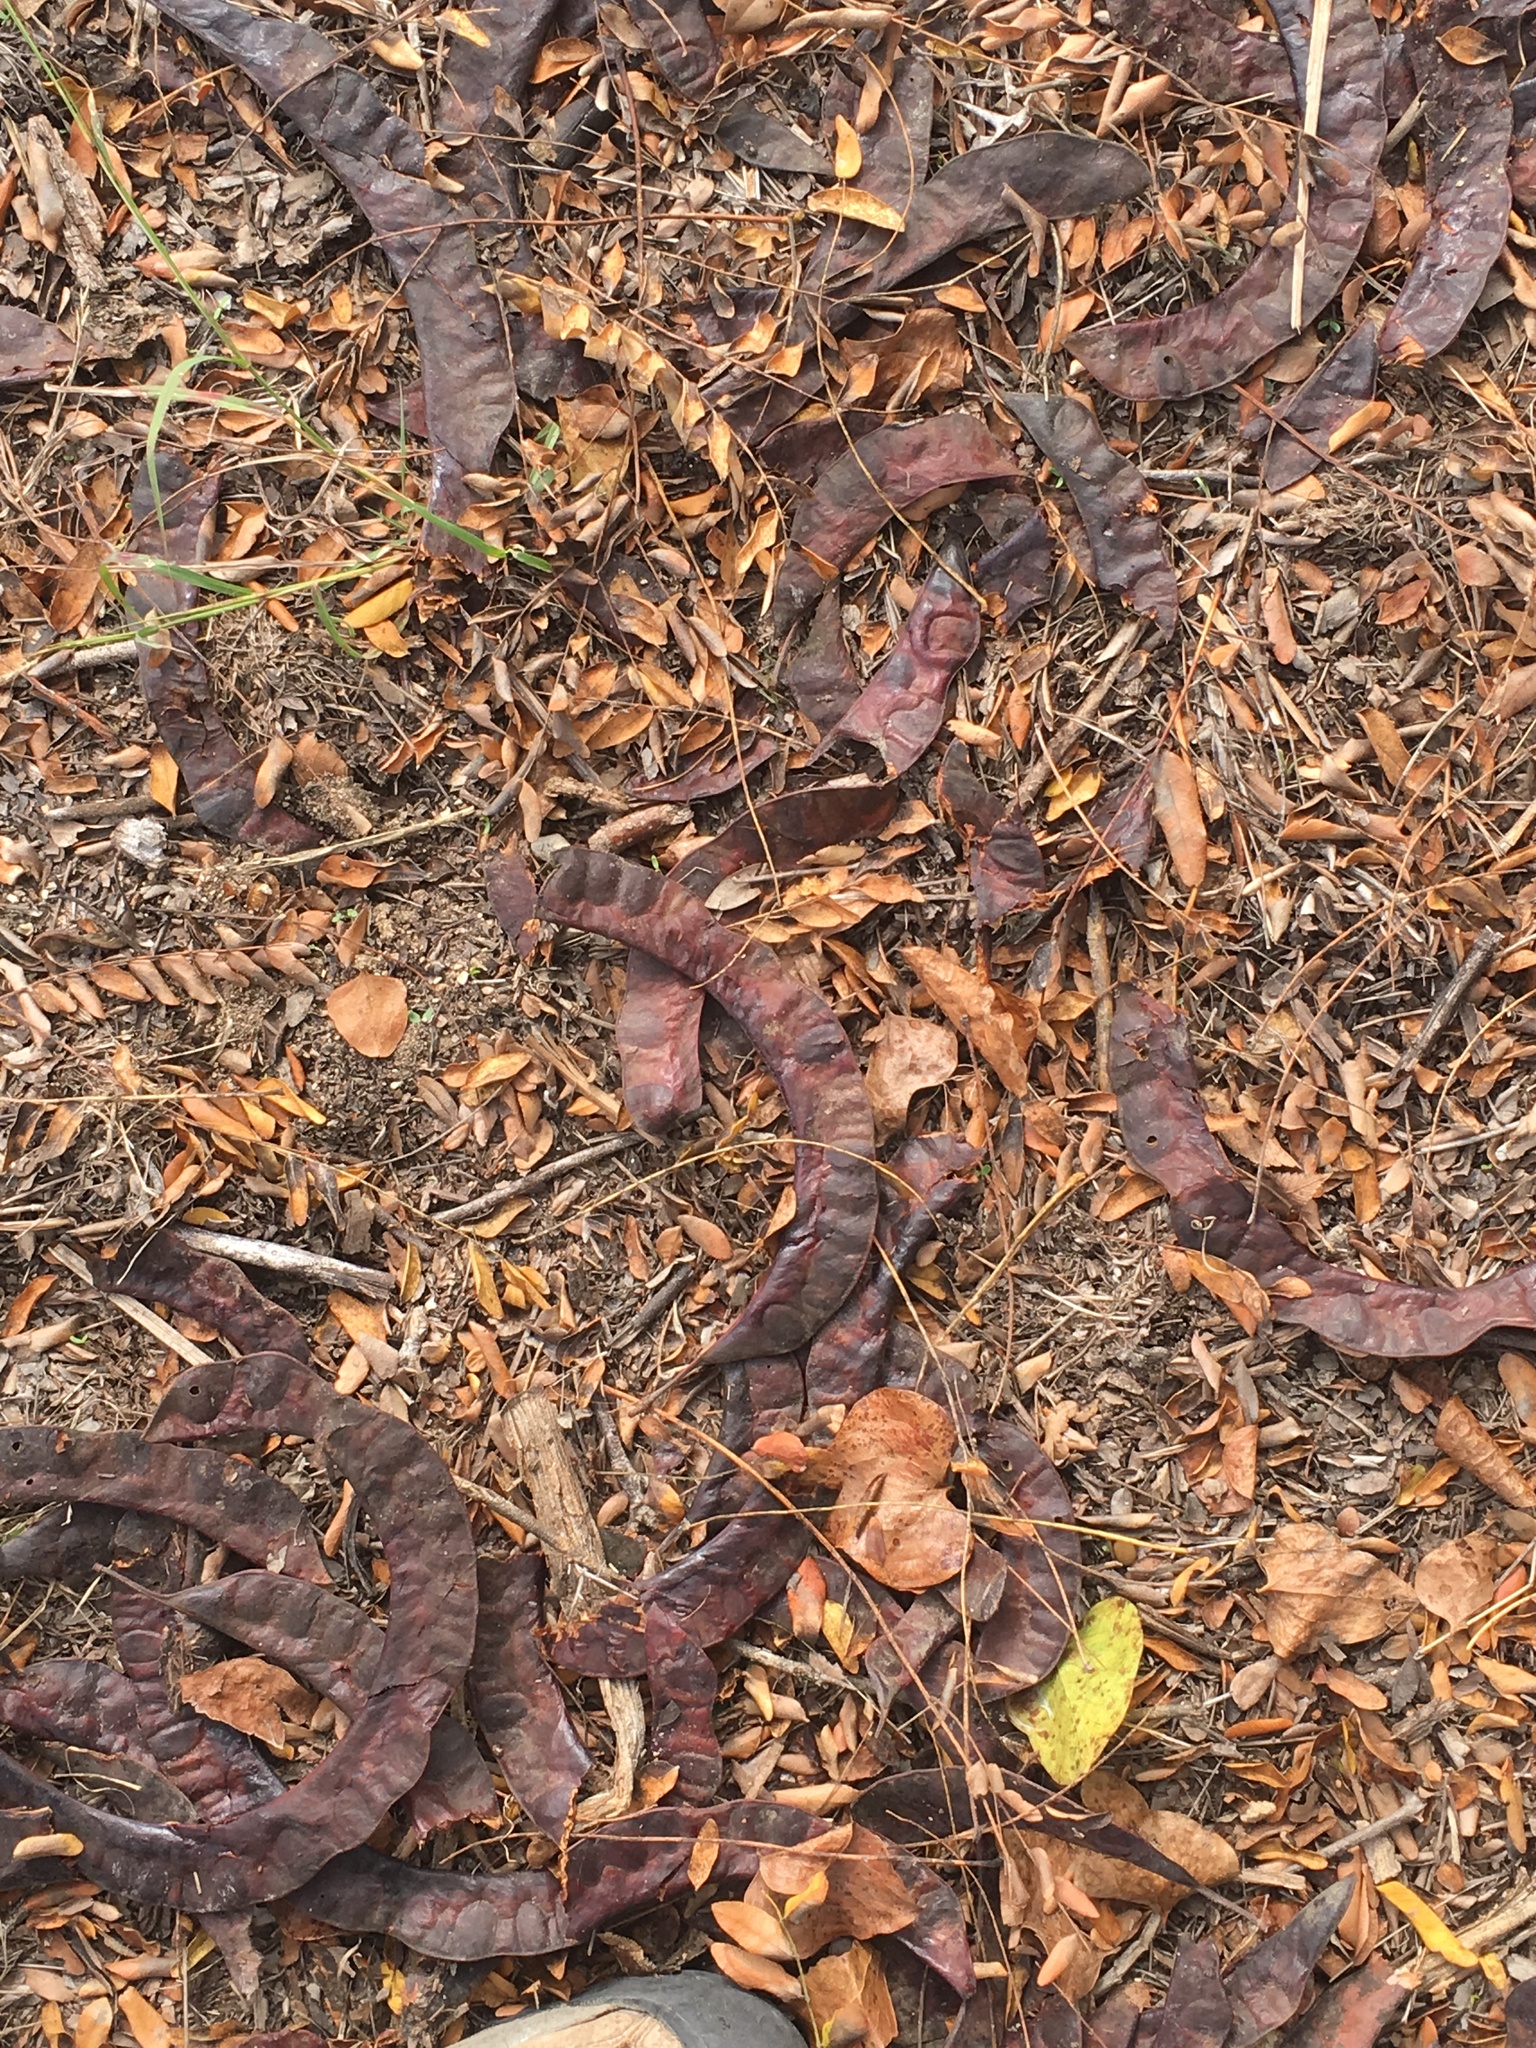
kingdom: Plantae
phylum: Tracheophyta
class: Magnoliopsida
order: Fabales
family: Fabaceae
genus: Gleditsia
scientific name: Gleditsia triacanthos
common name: Common honeylocust
